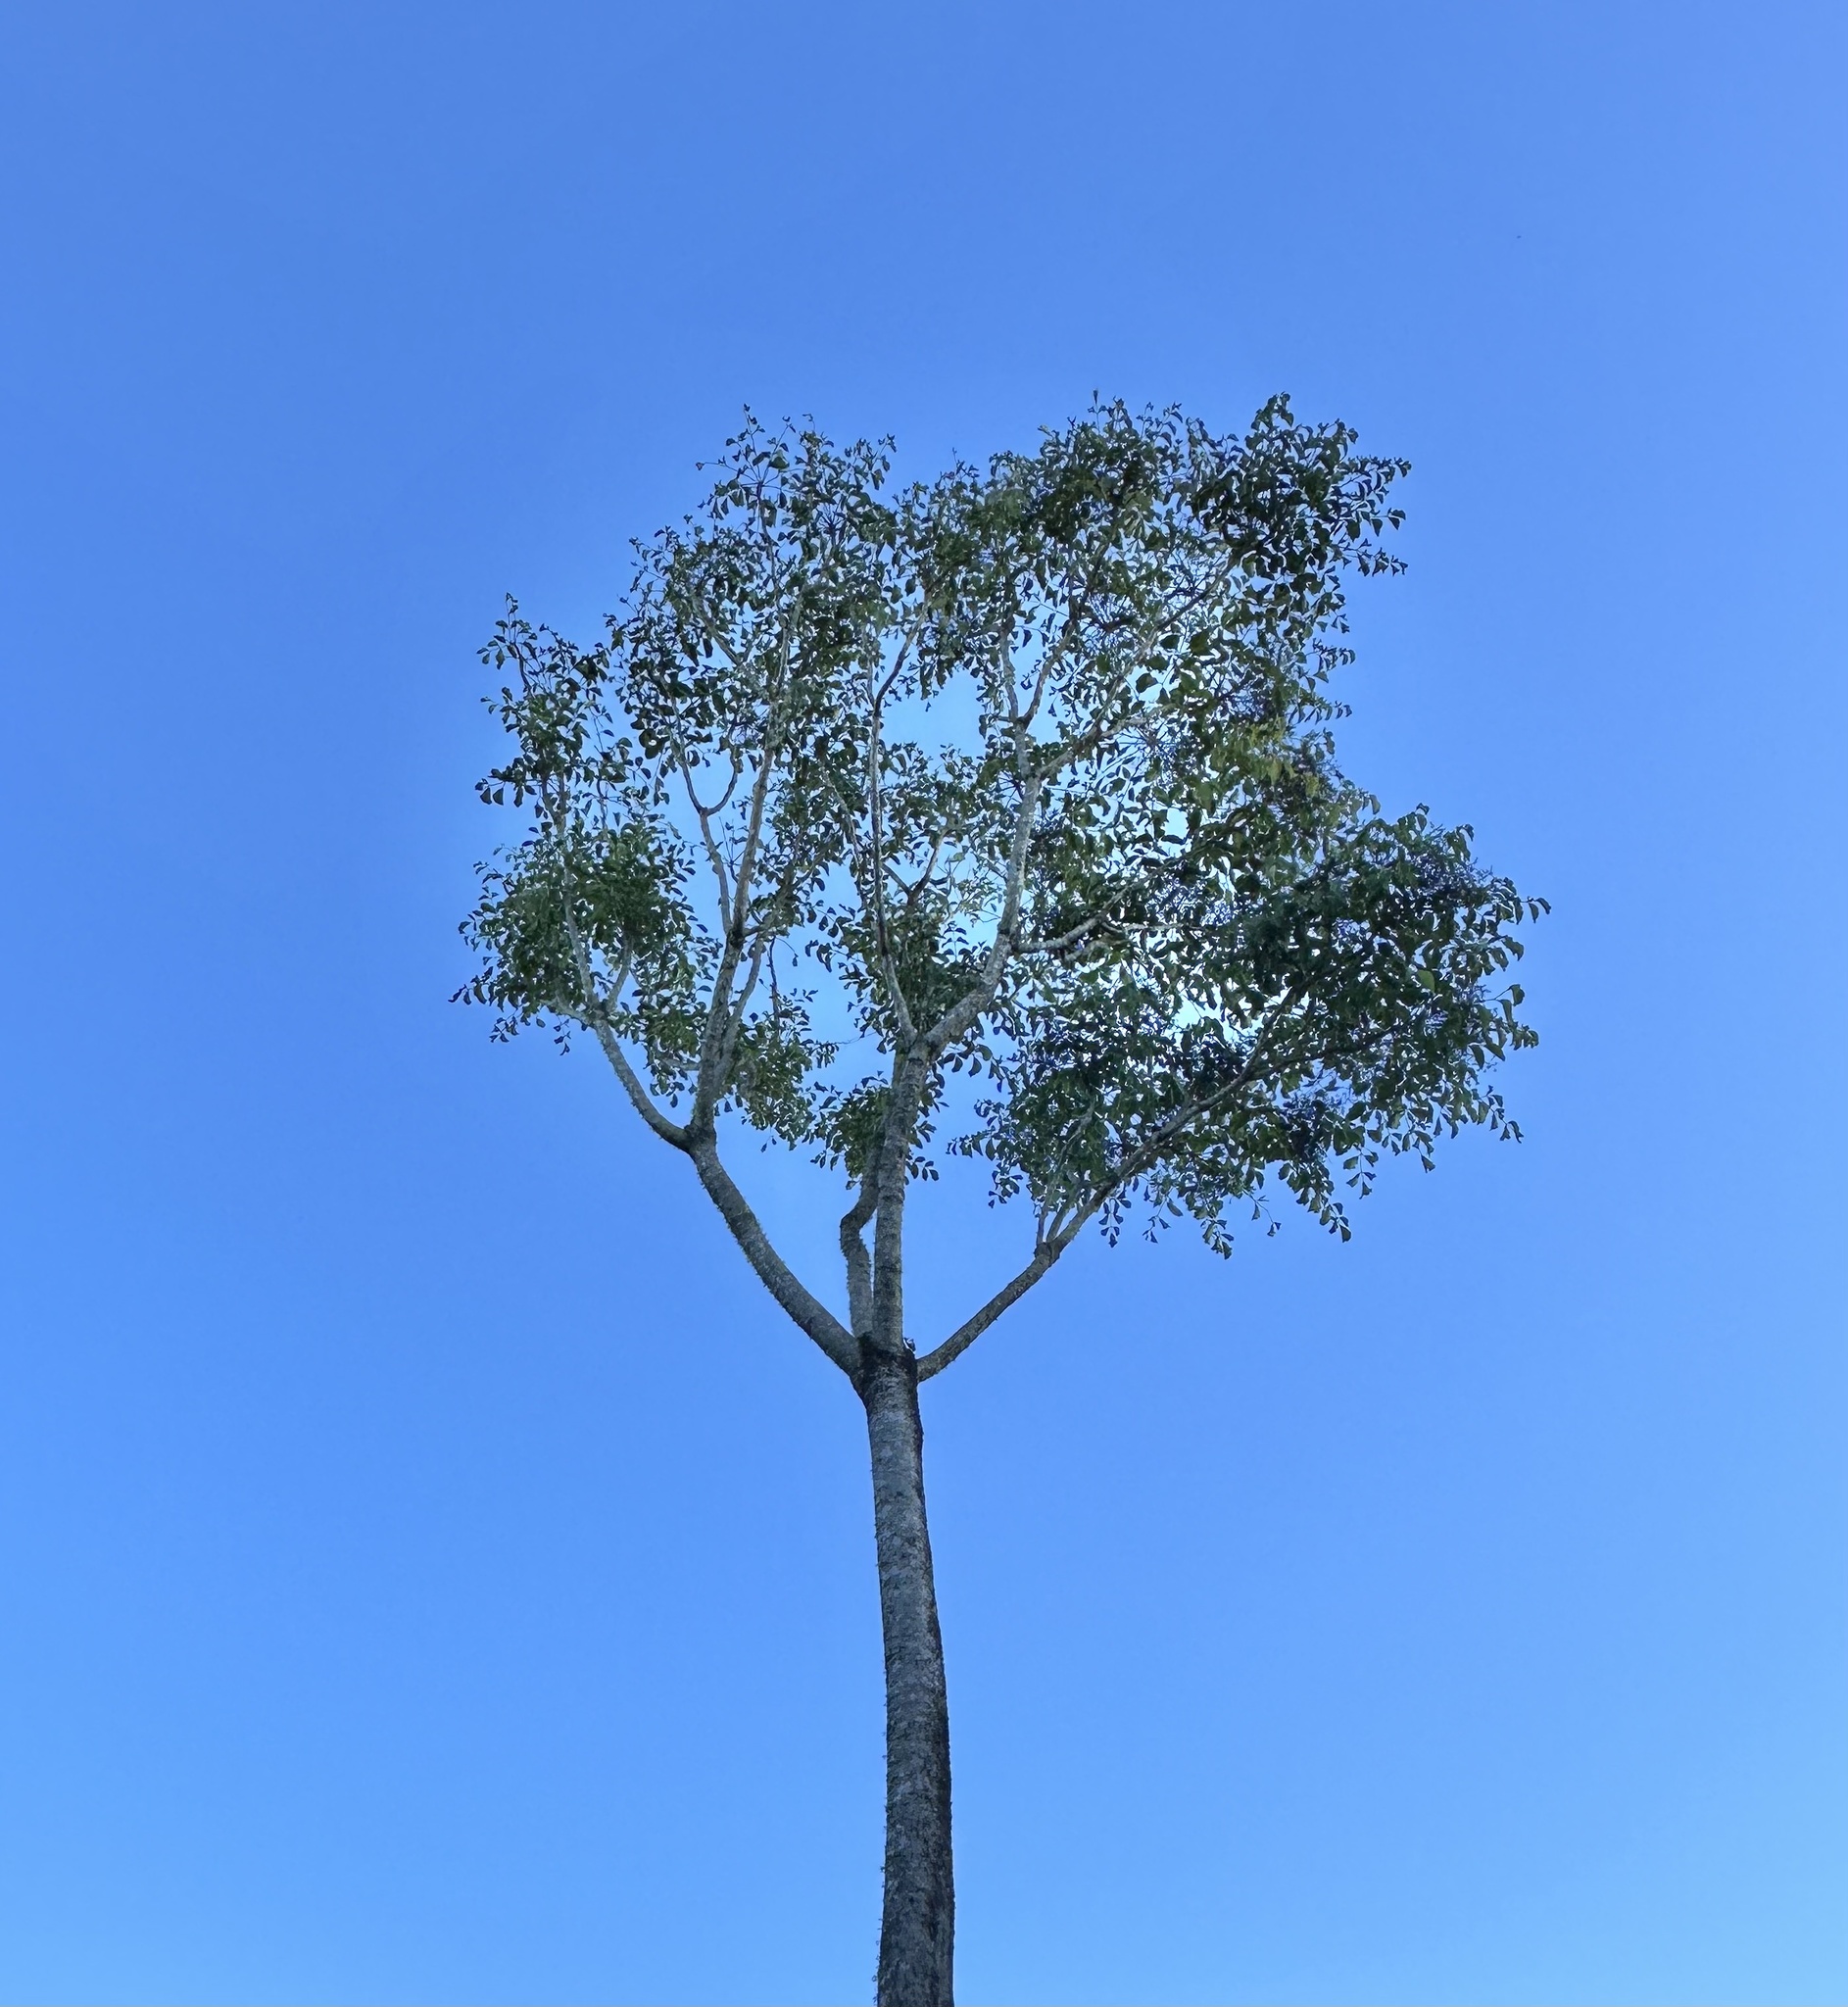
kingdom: Plantae
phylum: Tracheophyta
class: Magnoliopsida
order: Apiales
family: Araliaceae
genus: Polyscias
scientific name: Polyscias elegans
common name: Mowbulan whitewood
